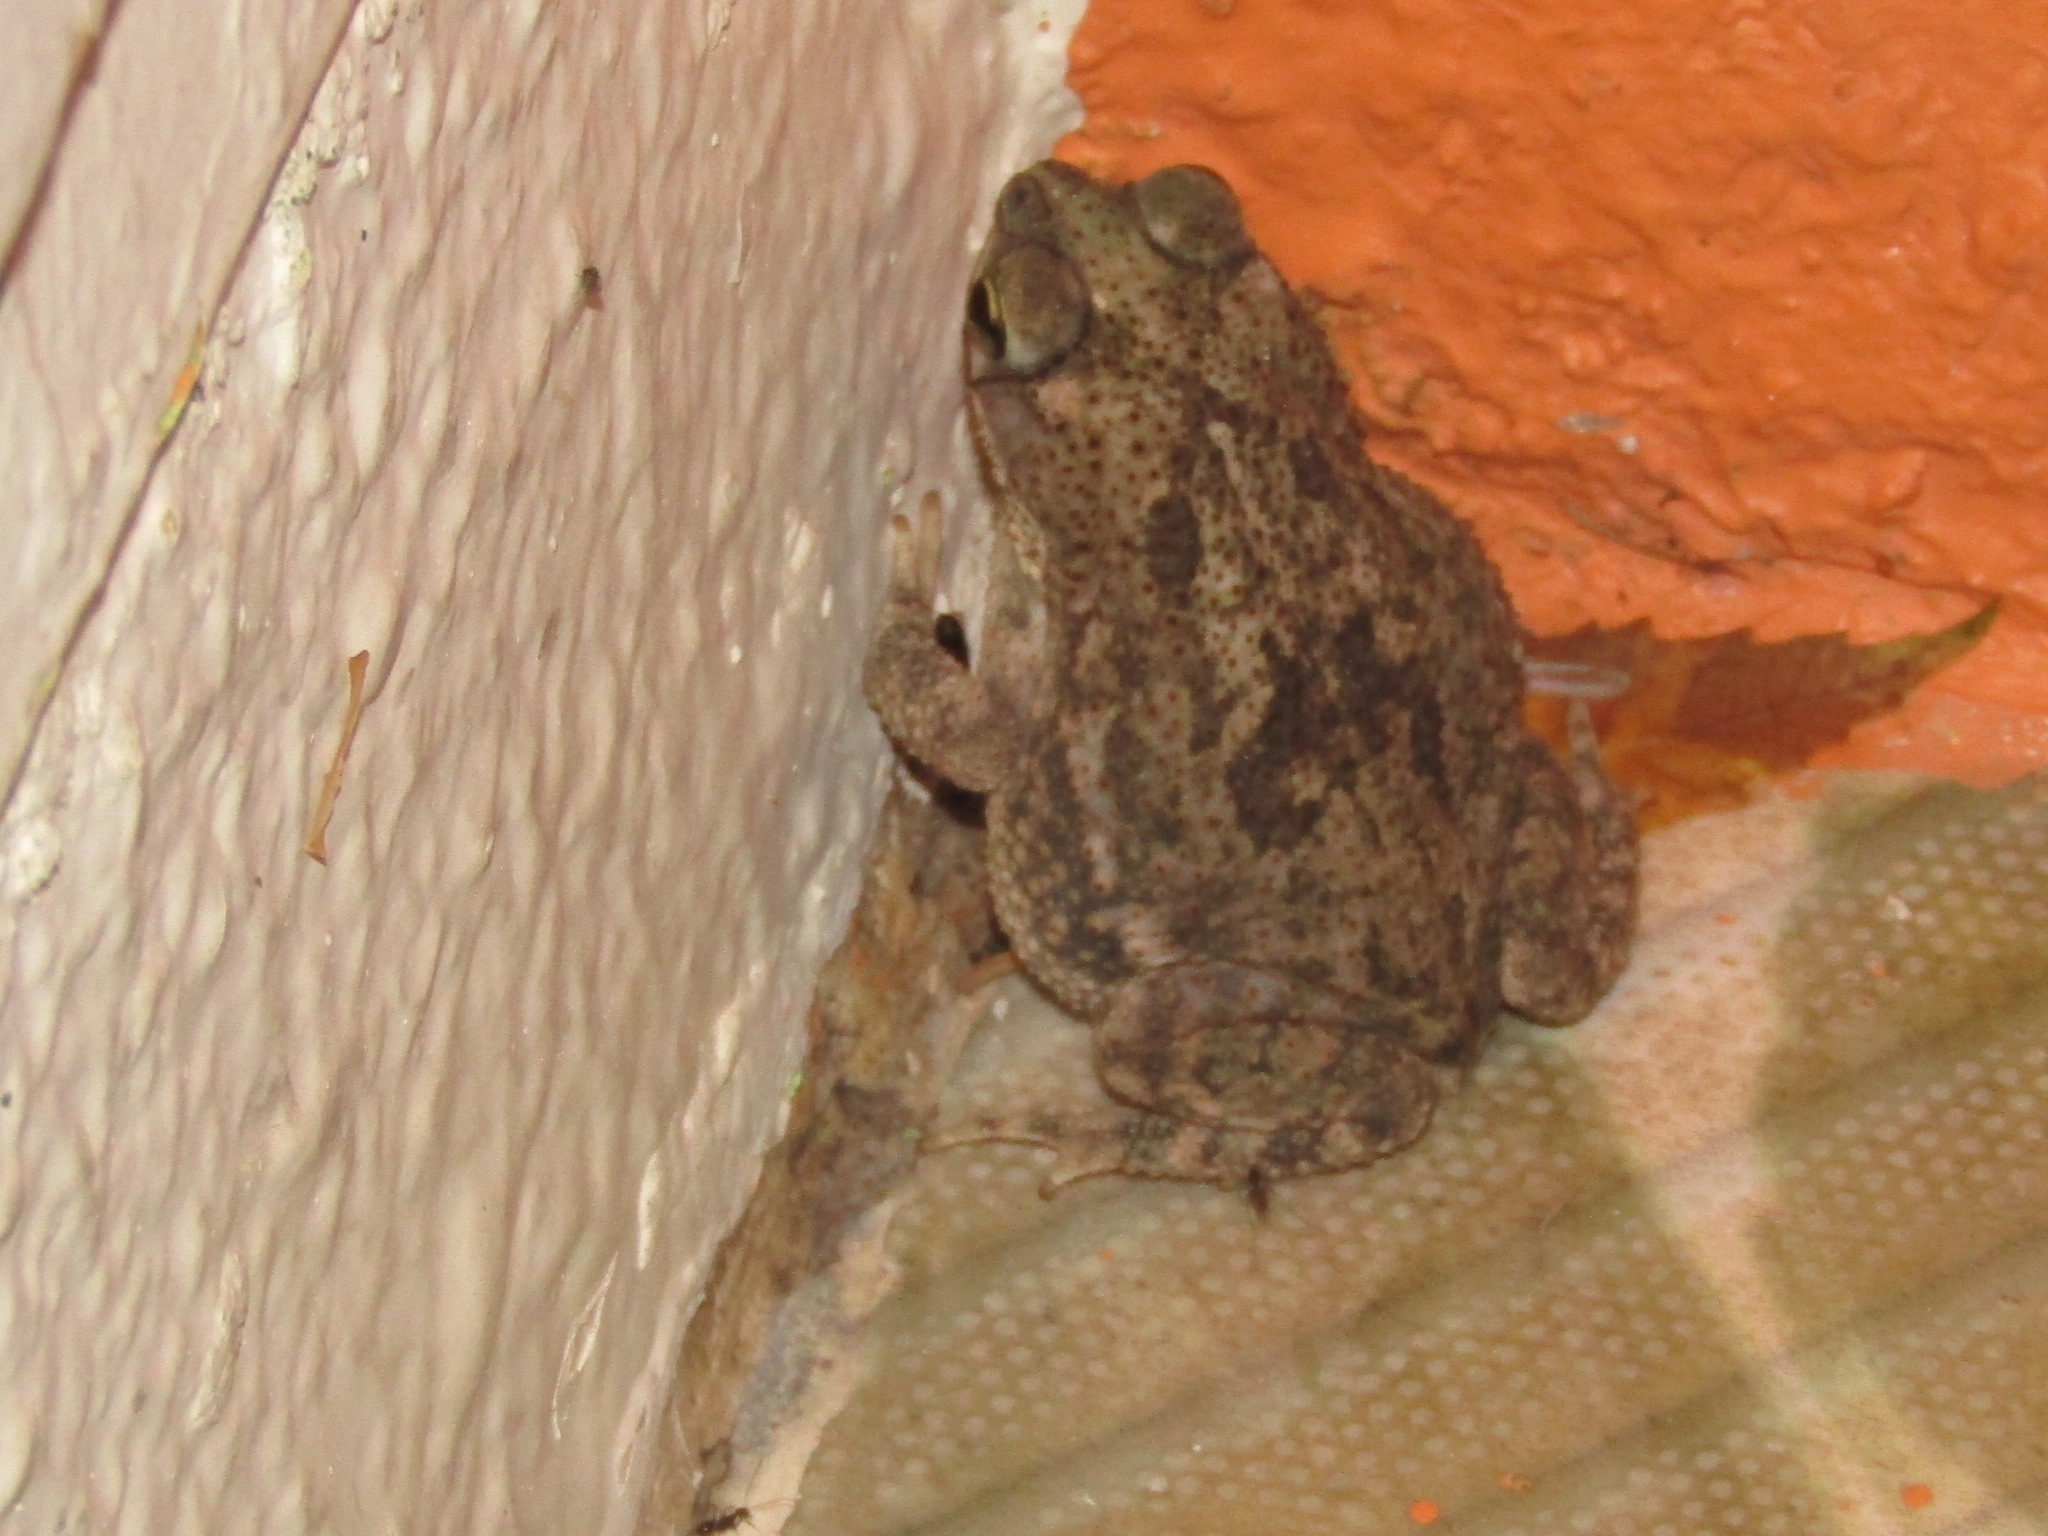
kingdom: Animalia
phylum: Chordata
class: Amphibia
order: Anura
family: Bufonidae
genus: Rhinella
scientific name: Rhinella granulosa
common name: Common lesser toad
